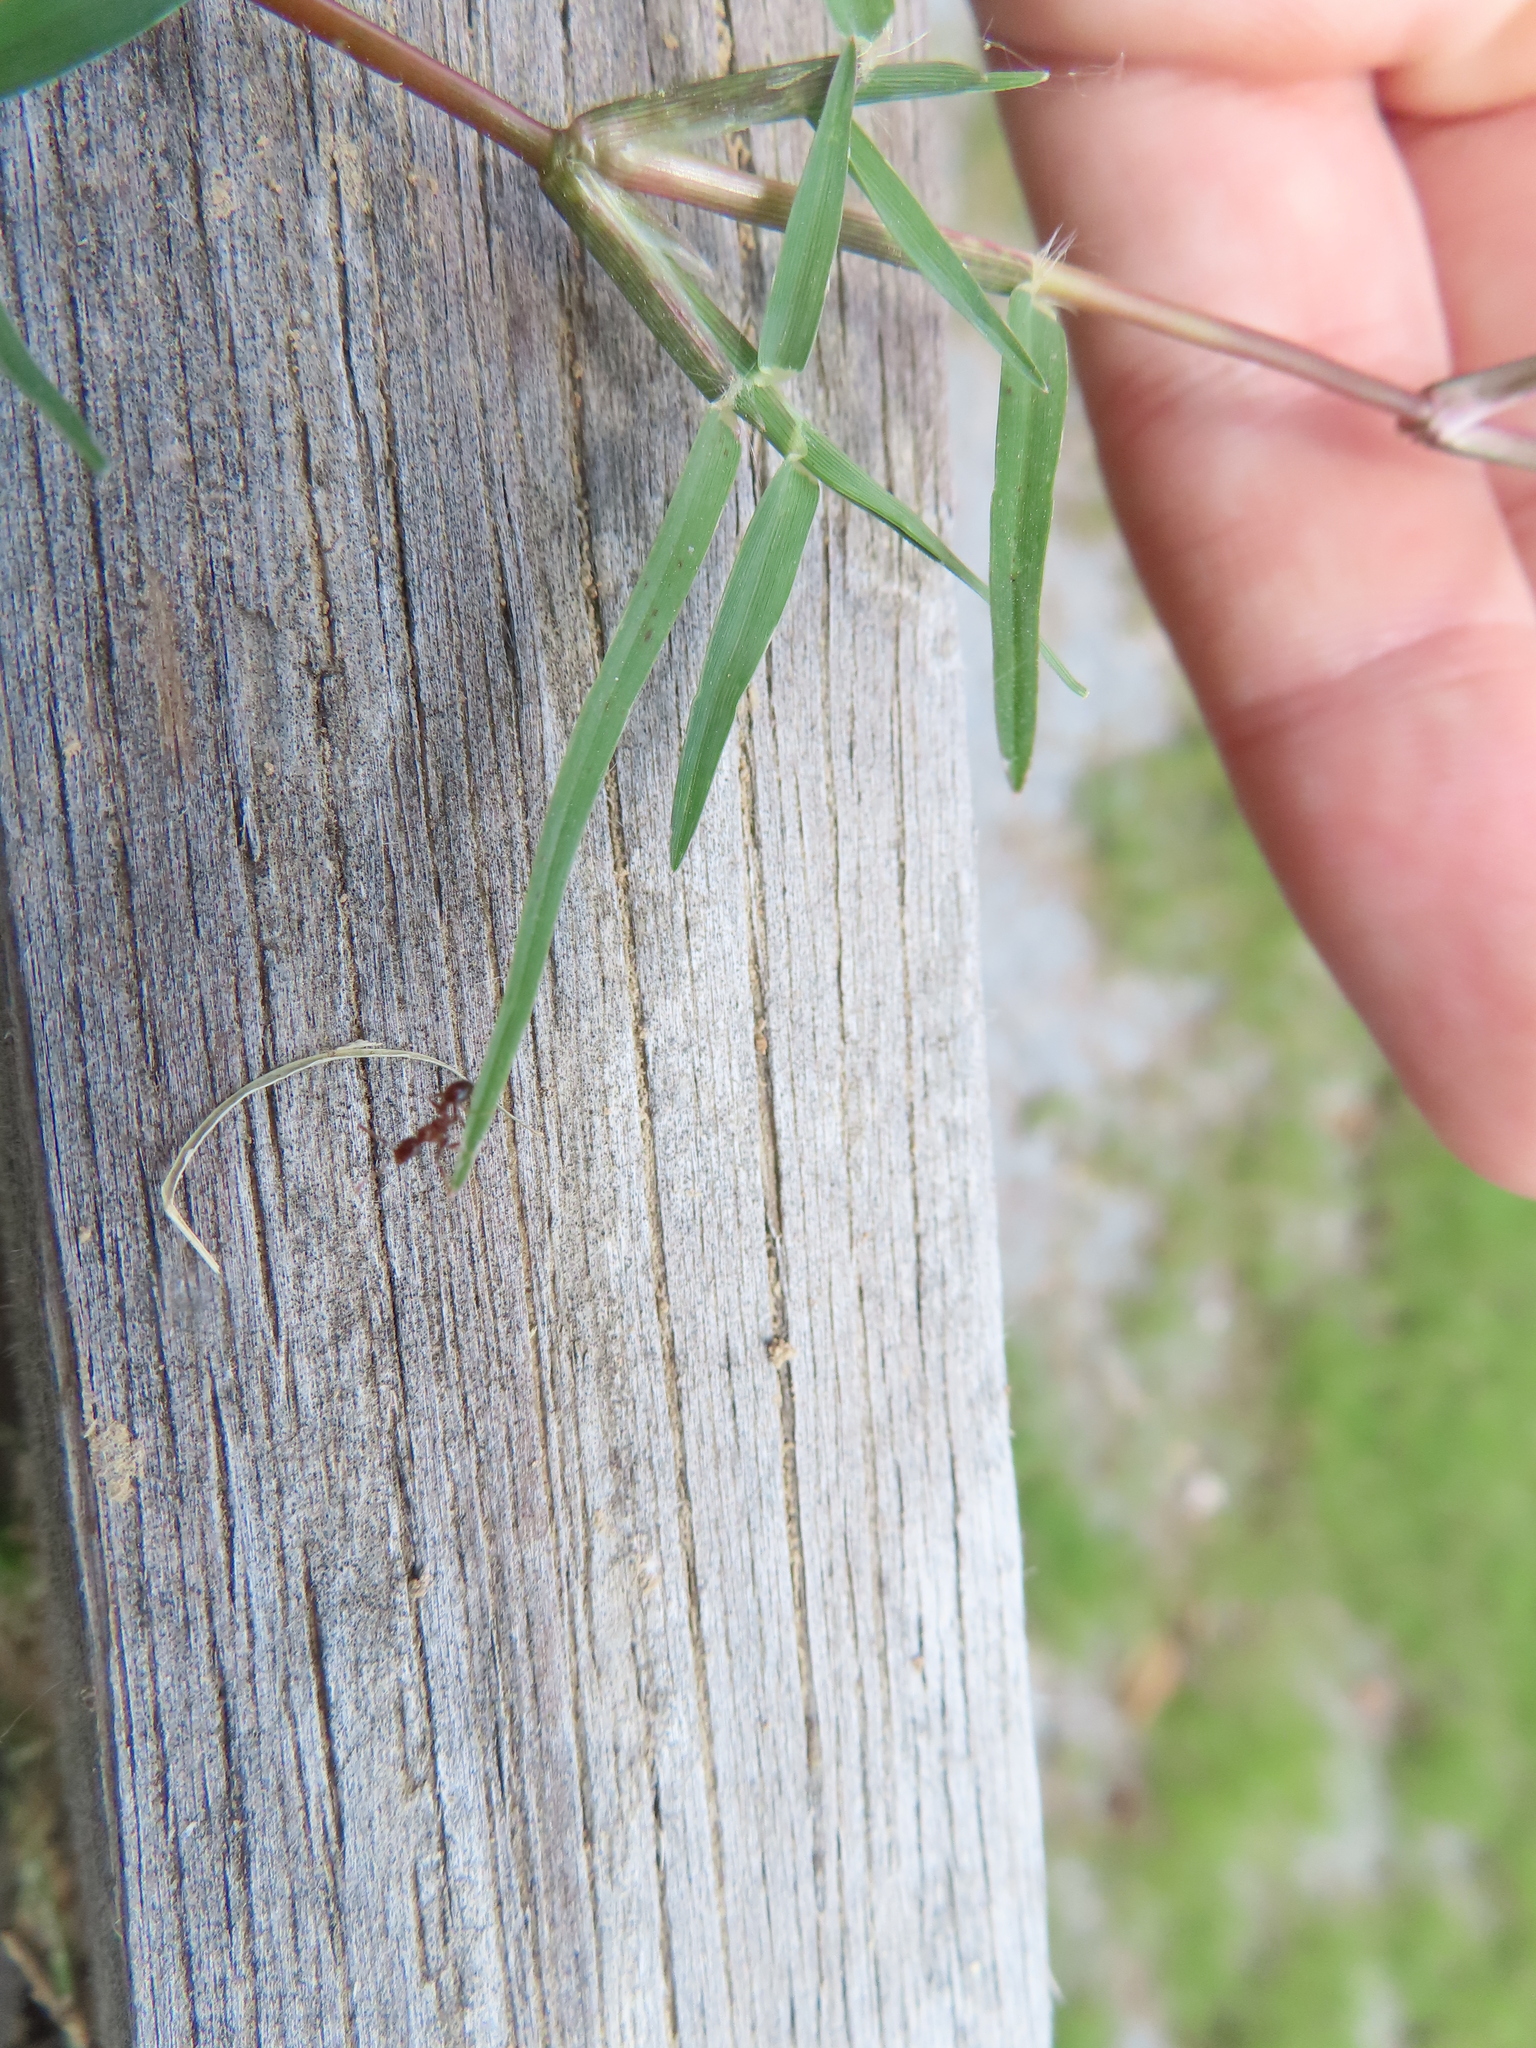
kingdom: Animalia
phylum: Arthropoda
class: Insecta
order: Hymenoptera
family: Formicidae
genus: Solenopsis
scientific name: Solenopsis
